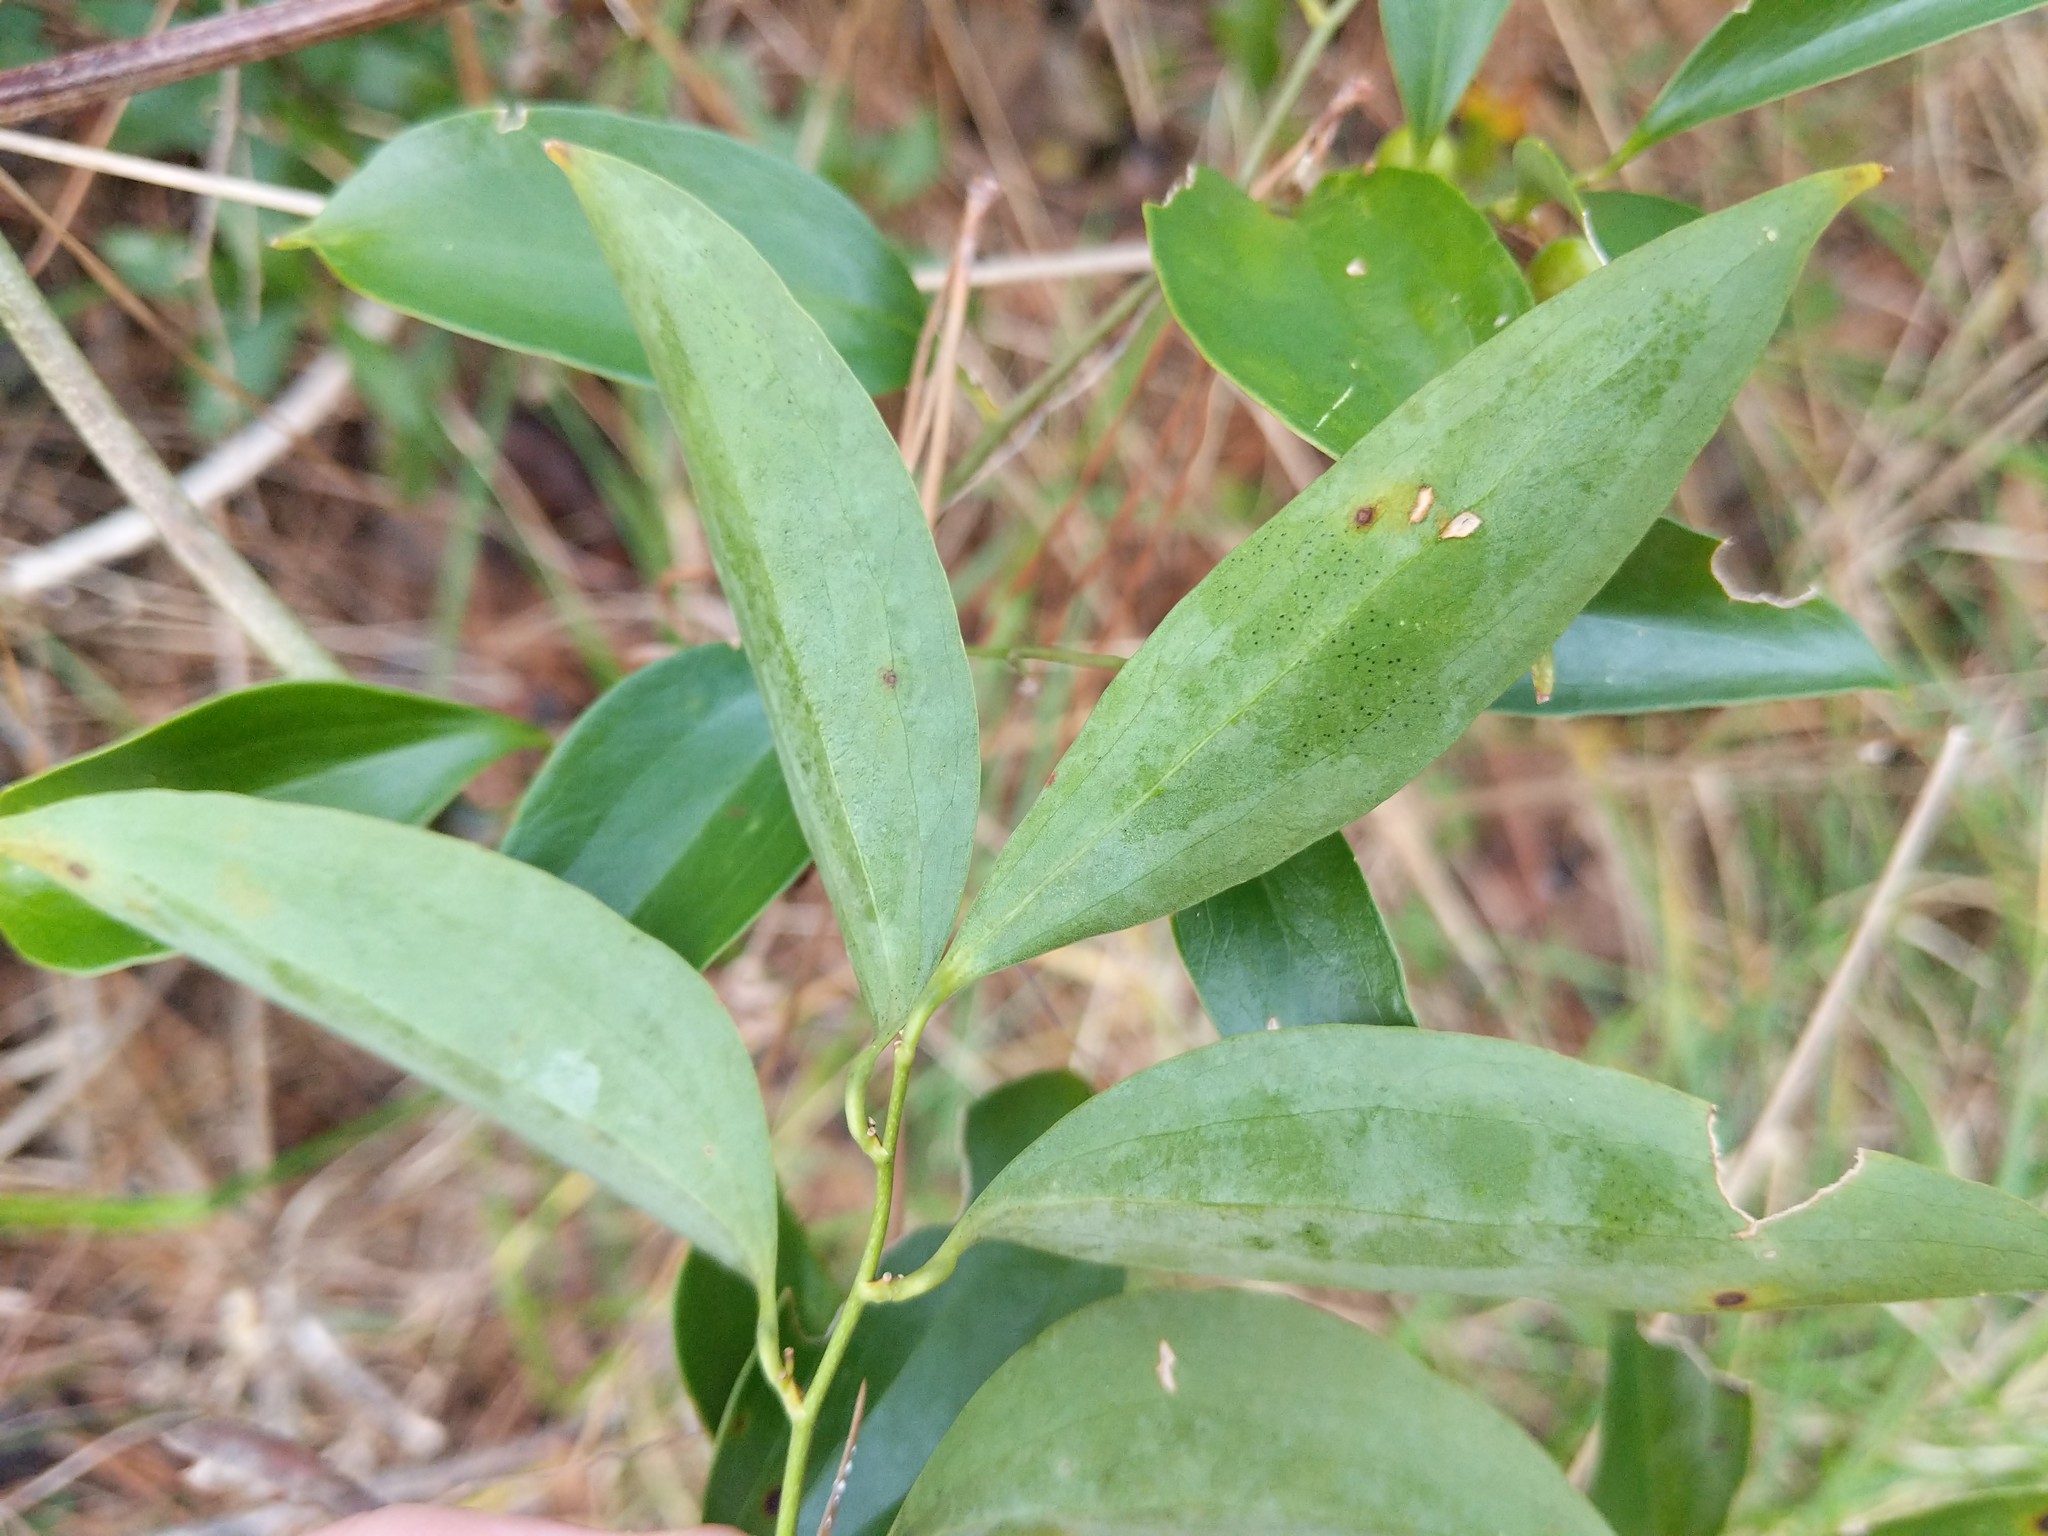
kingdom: Plantae
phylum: Tracheophyta
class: Liliopsida
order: Liliales
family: Smilacaceae
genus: Smilax
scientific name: Smilax maritima
